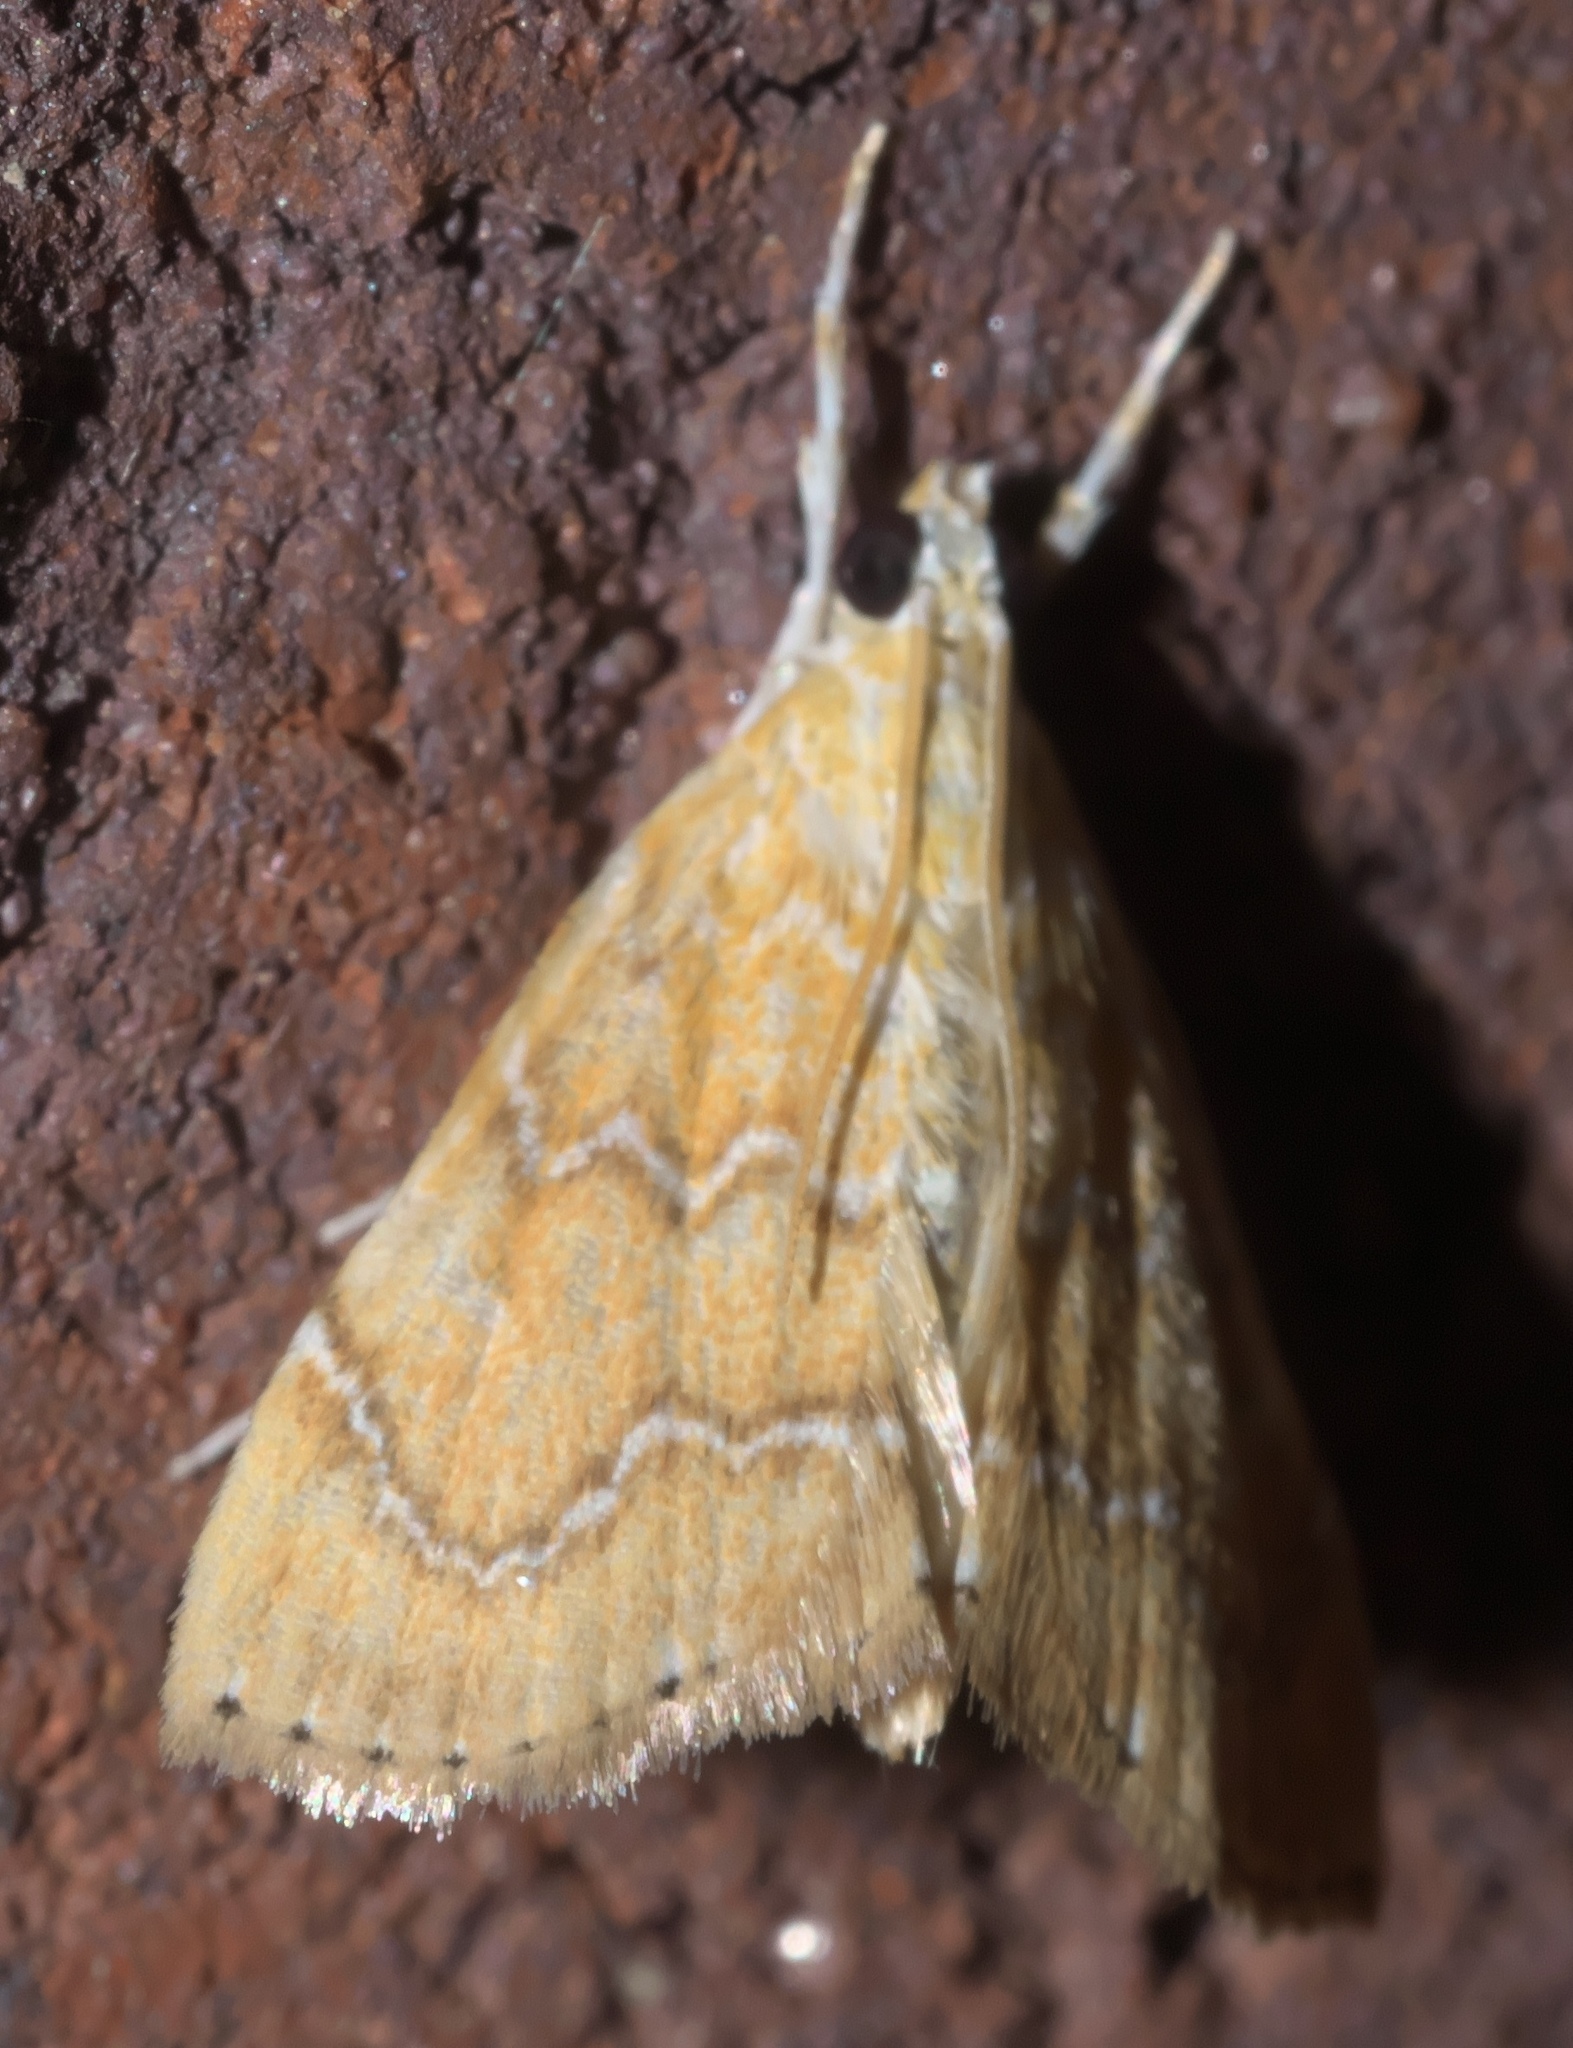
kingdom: Animalia
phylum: Arthropoda
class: Insecta
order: Lepidoptera
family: Crambidae
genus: Glaphyria
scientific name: Glaphyria sesquistrialis
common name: White-roped glaphyria
